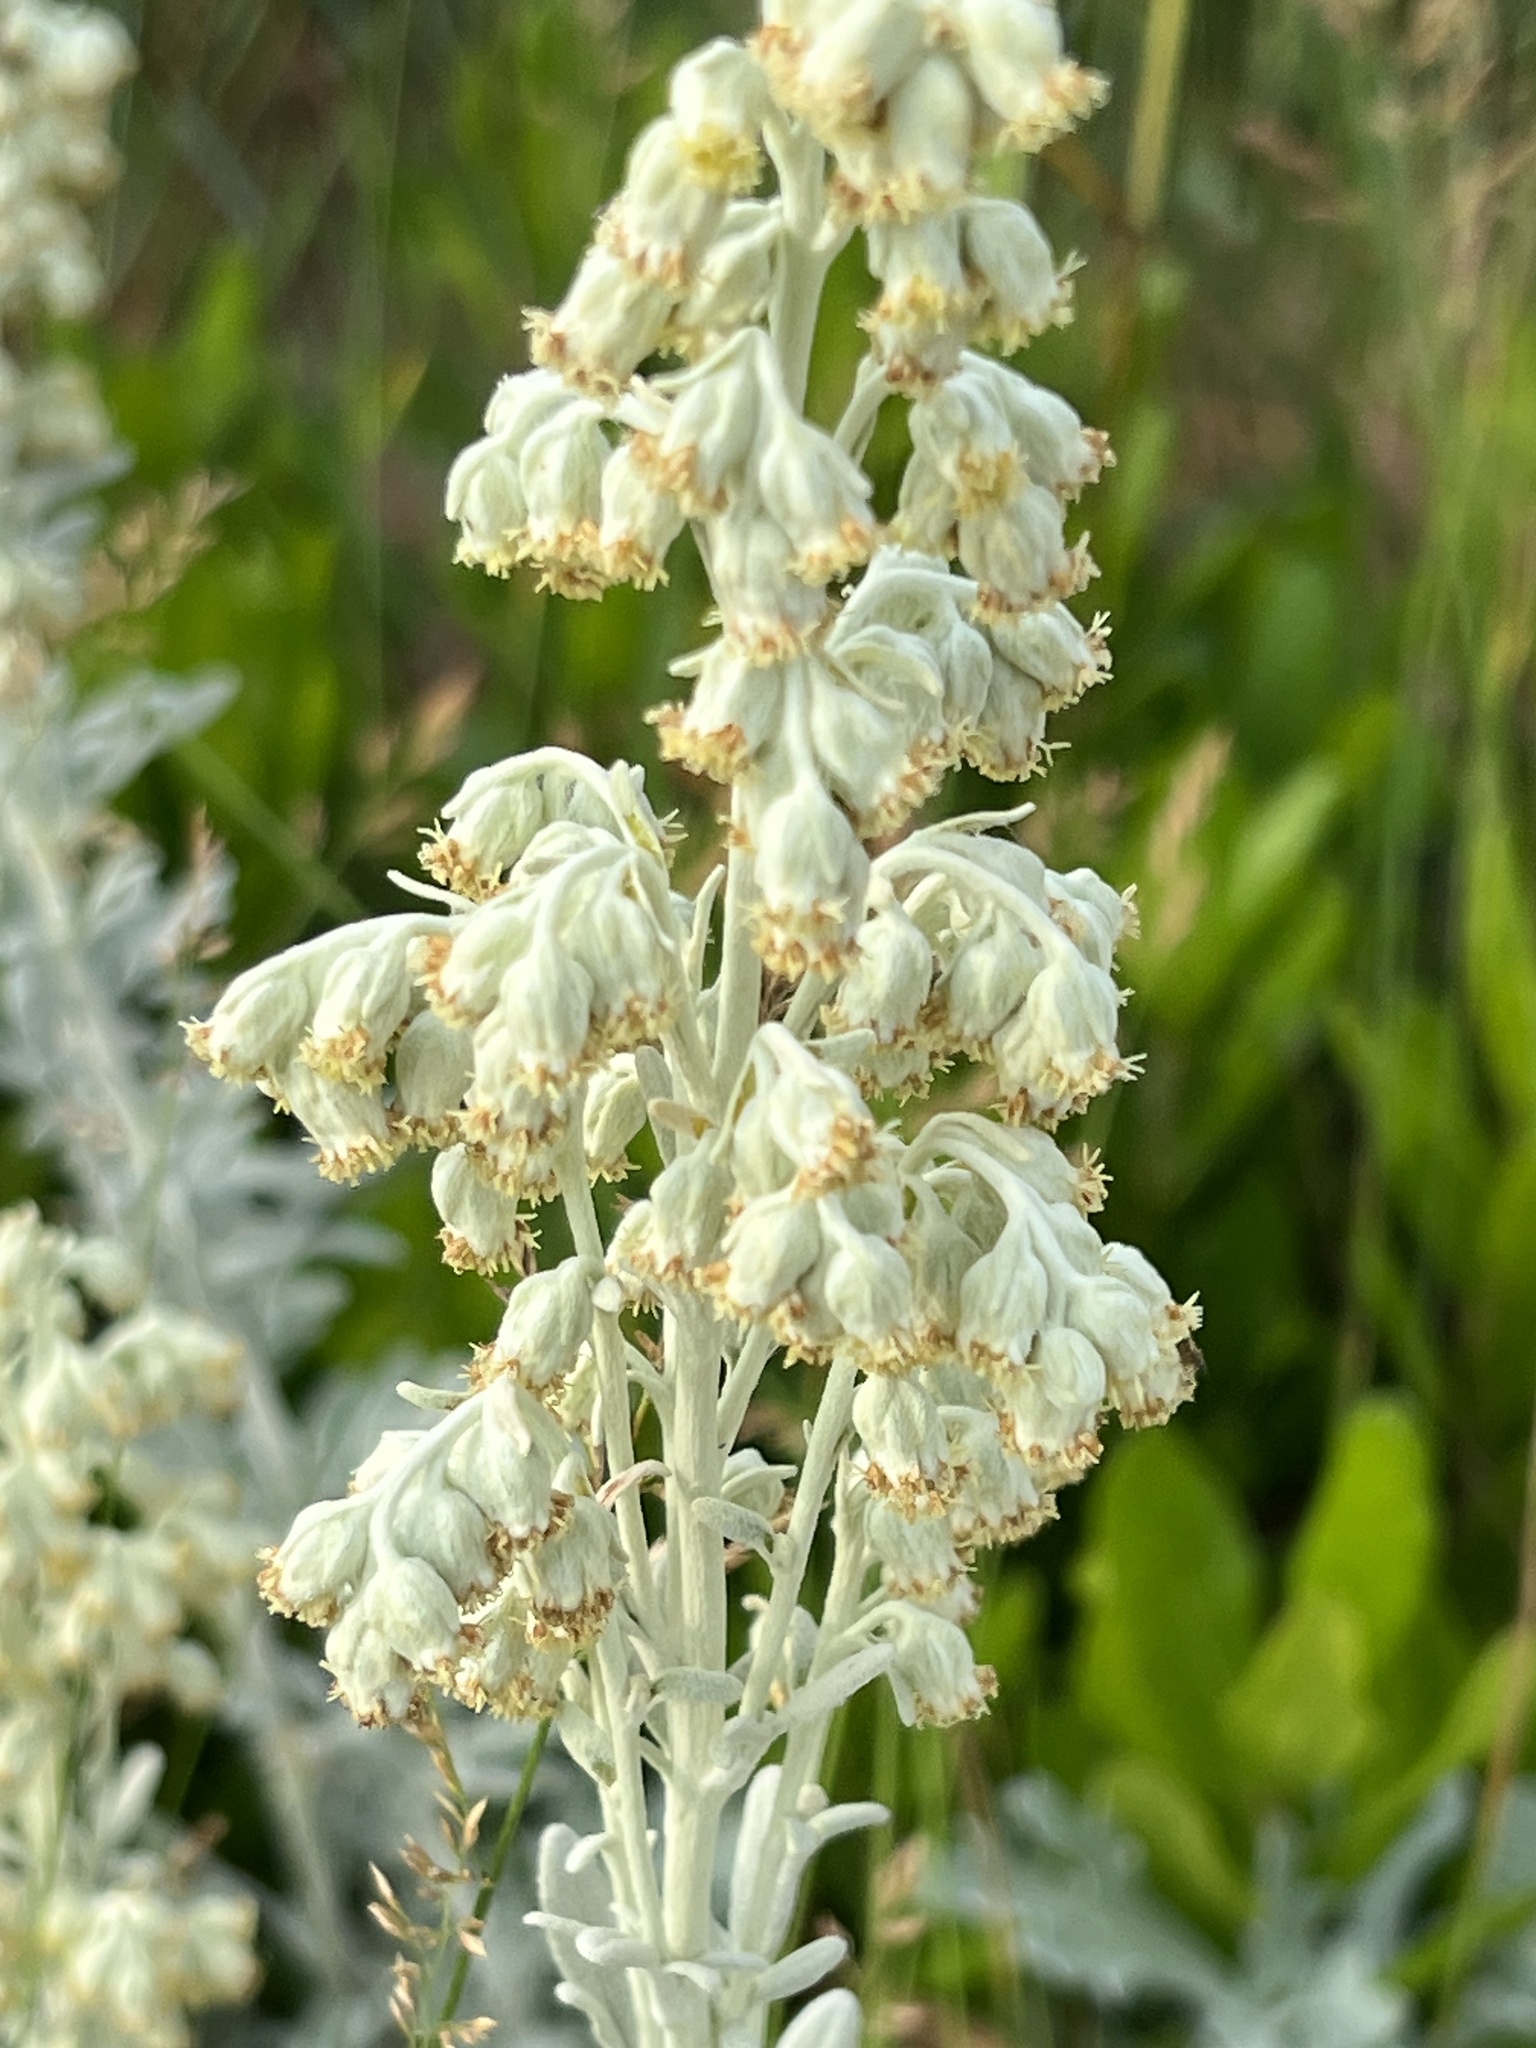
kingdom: Plantae
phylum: Tracheophyta
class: Magnoliopsida
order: Asterales
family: Asteraceae
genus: Artemisia
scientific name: Artemisia stelleriana
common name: Beach wormwood
